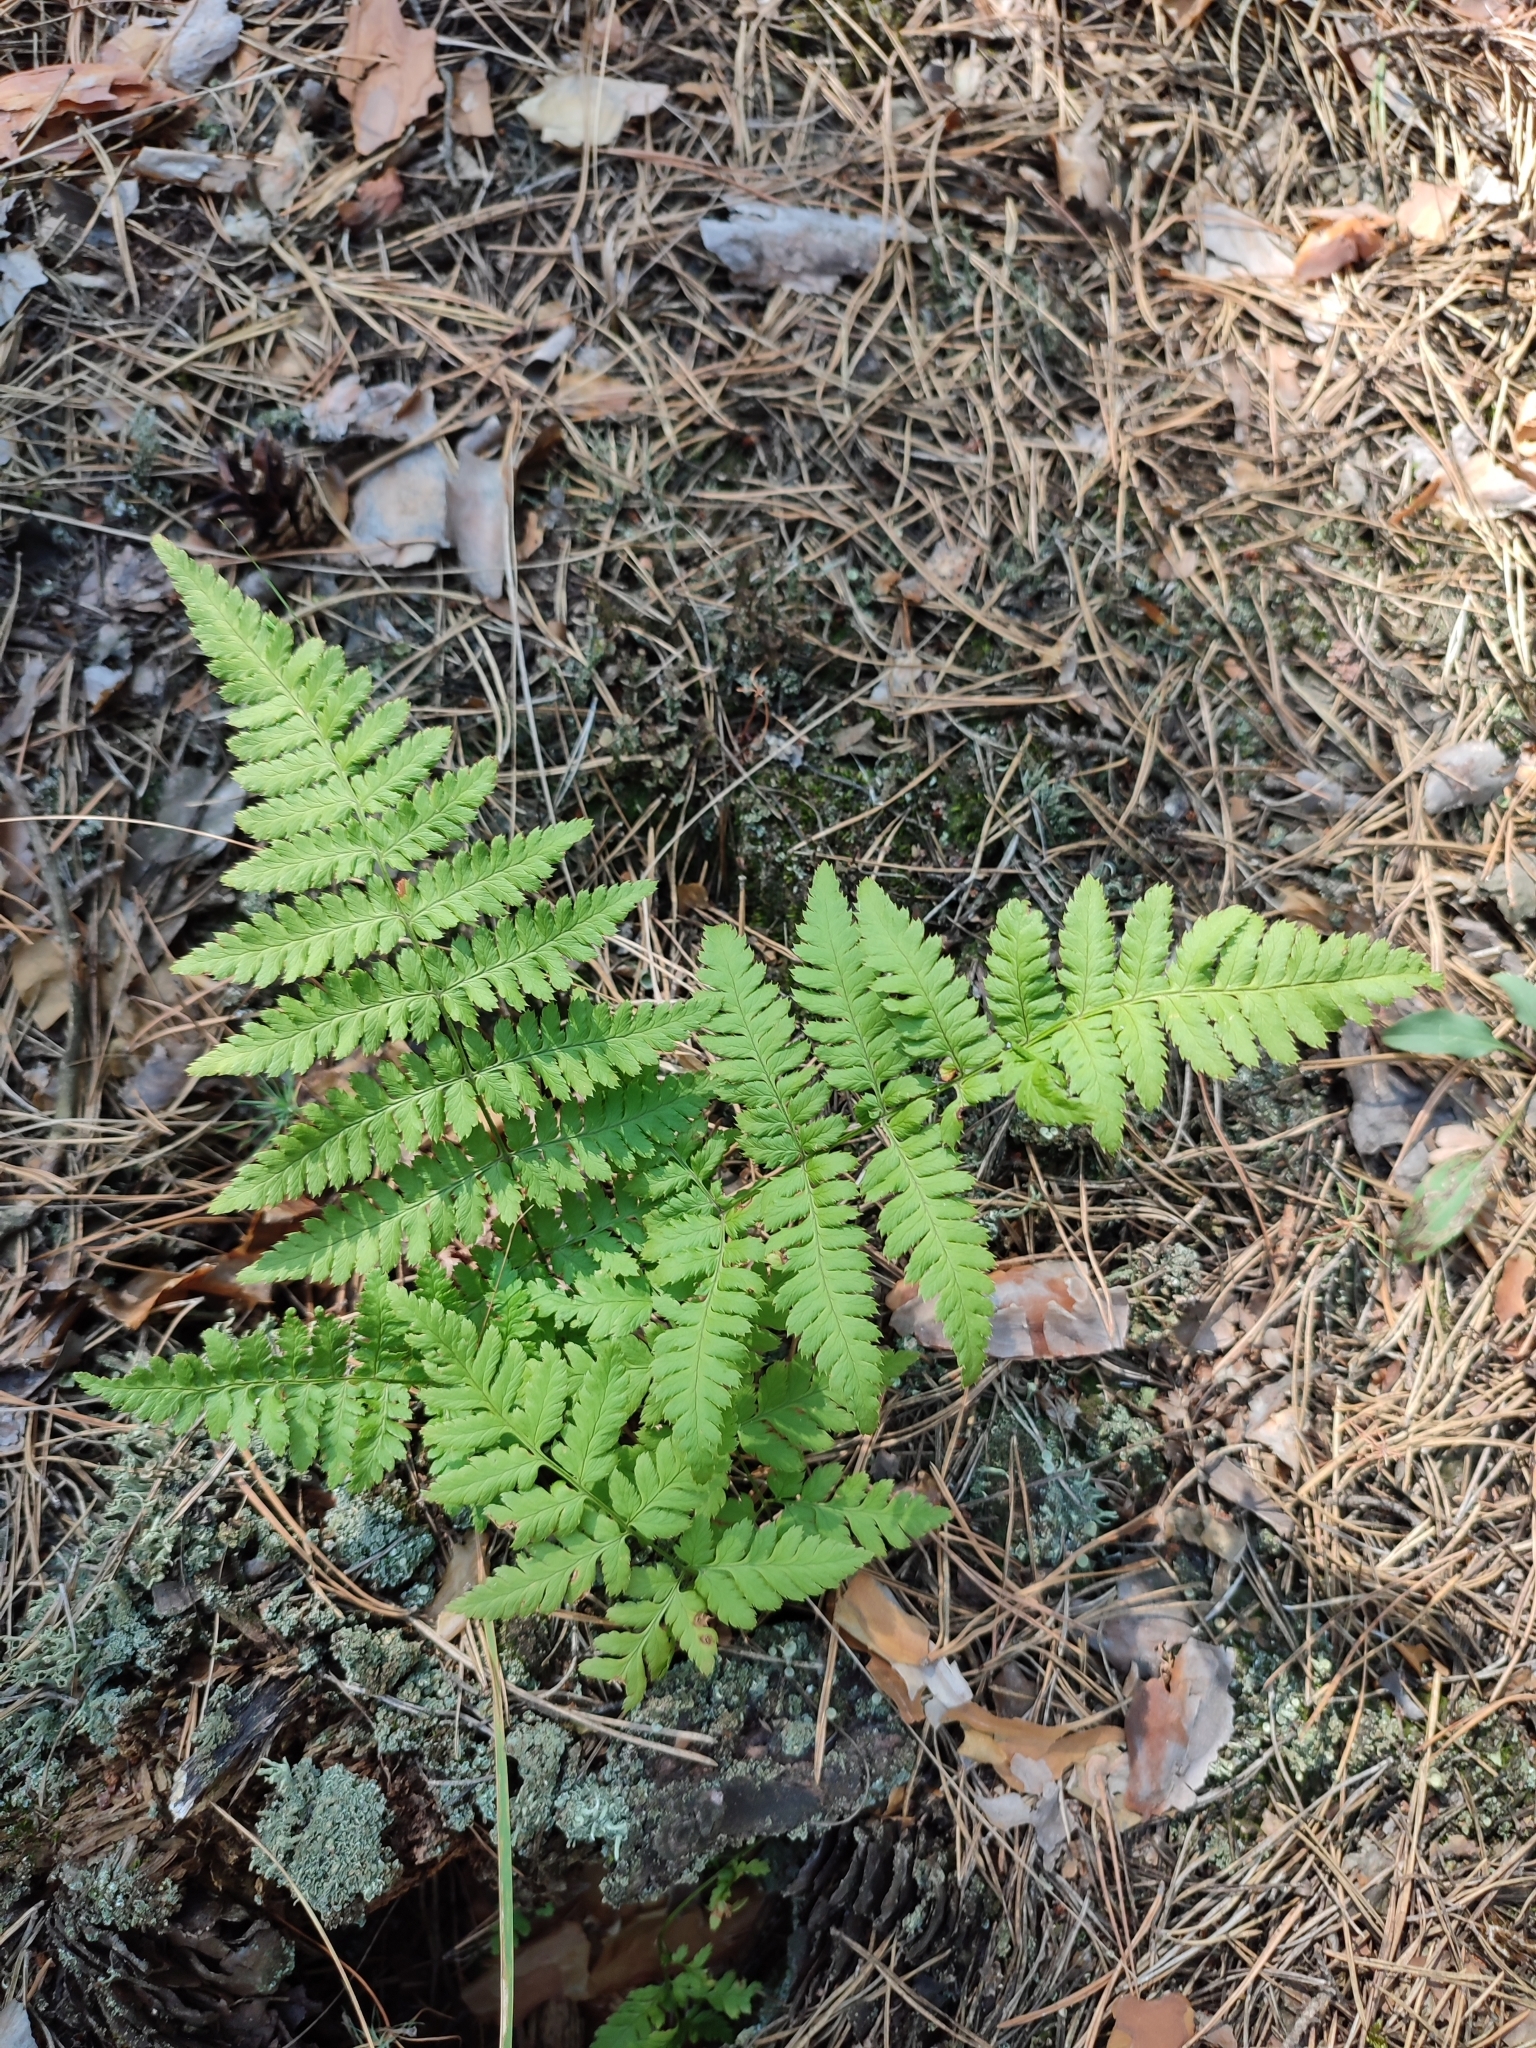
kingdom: Plantae
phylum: Tracheophyta
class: Polypodiopsida
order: Polypodiales
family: Dryopteridaceae
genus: Dryopteris
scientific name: Dryopteris carthusiana
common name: Narrow buckler-fern
